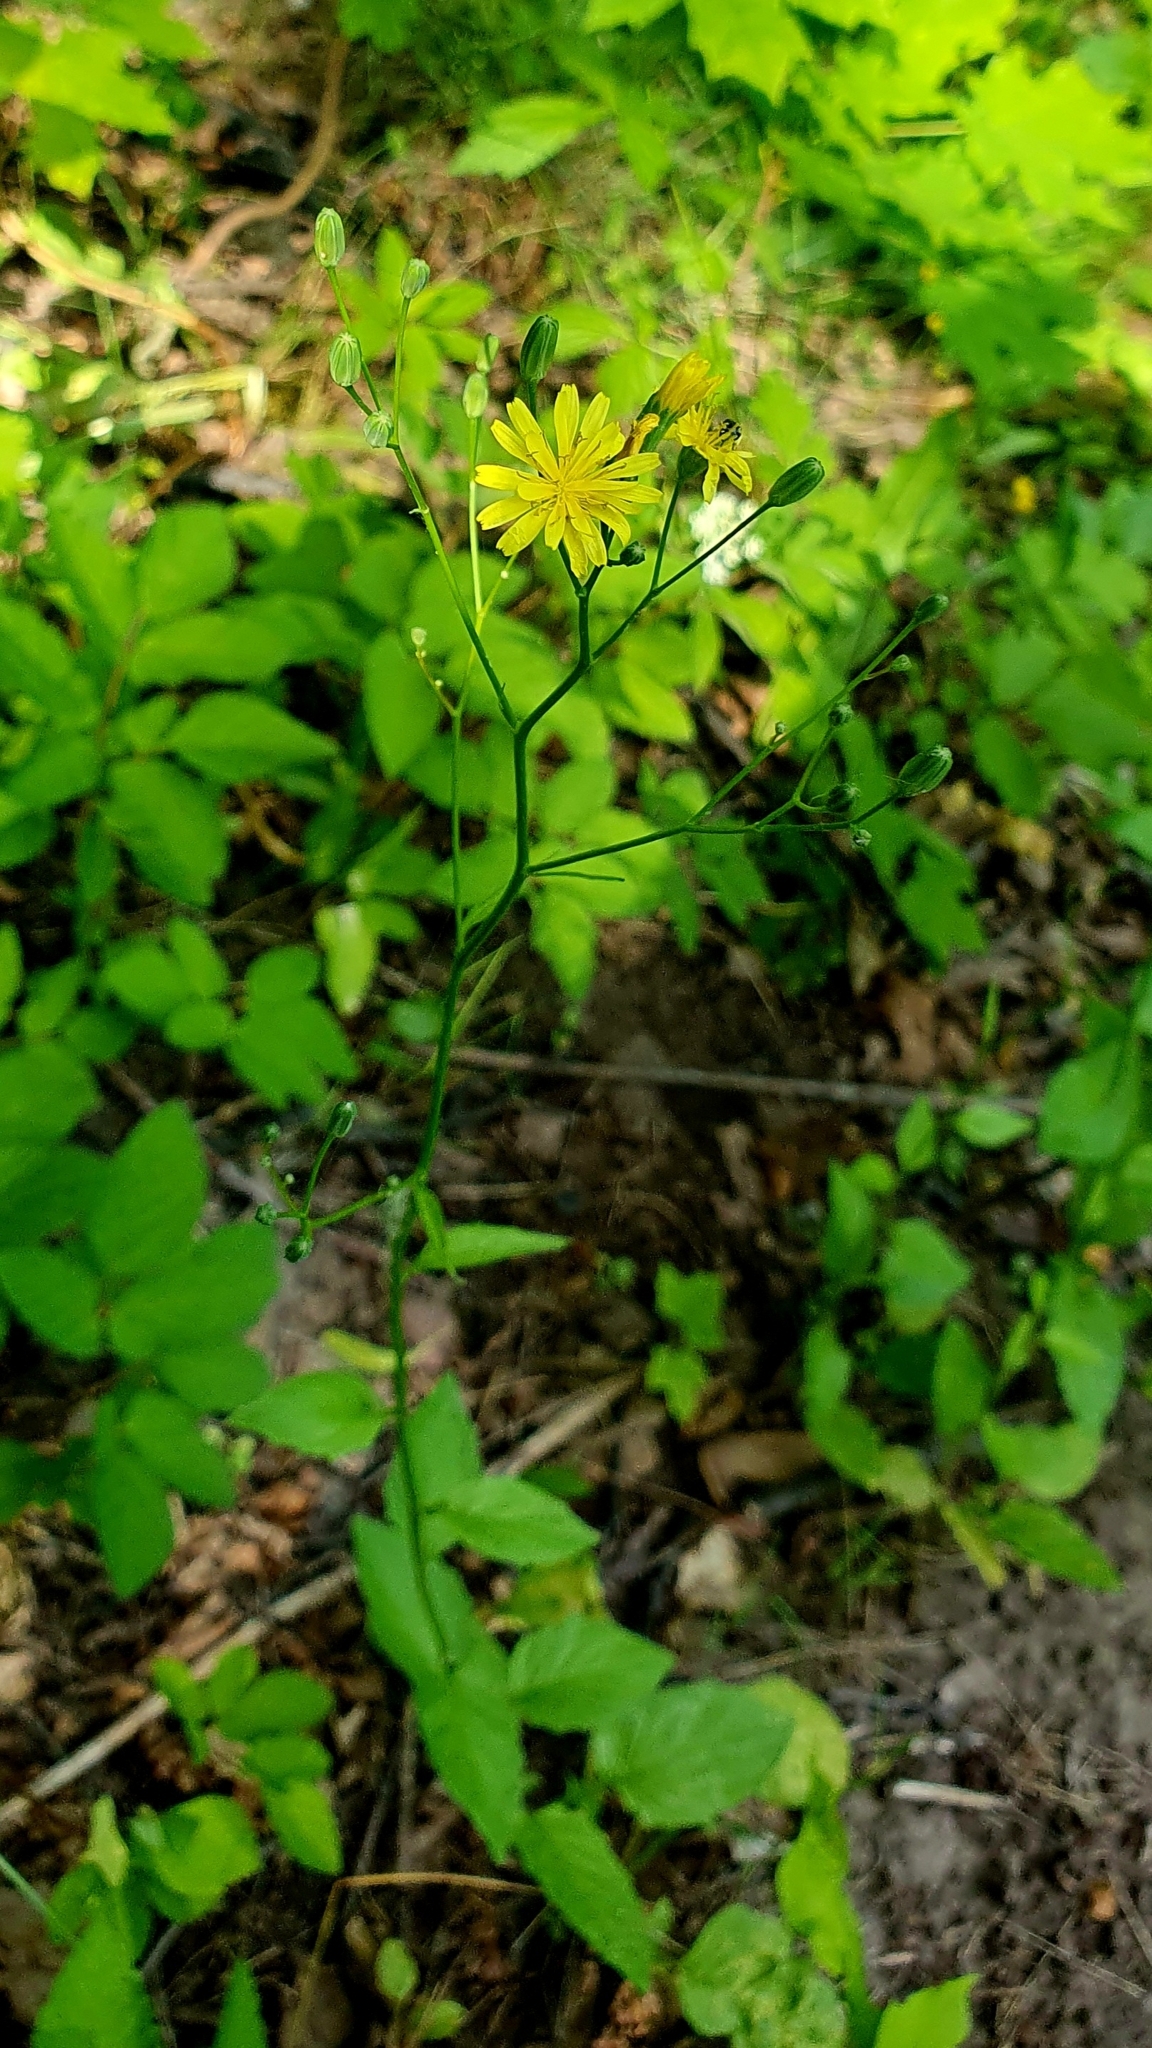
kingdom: Plantae
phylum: Tracheophyta
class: Magnoliopsida
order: Asterales
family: Asteraceae
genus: Lapsana
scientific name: Lapsana communis
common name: Nipplewort
